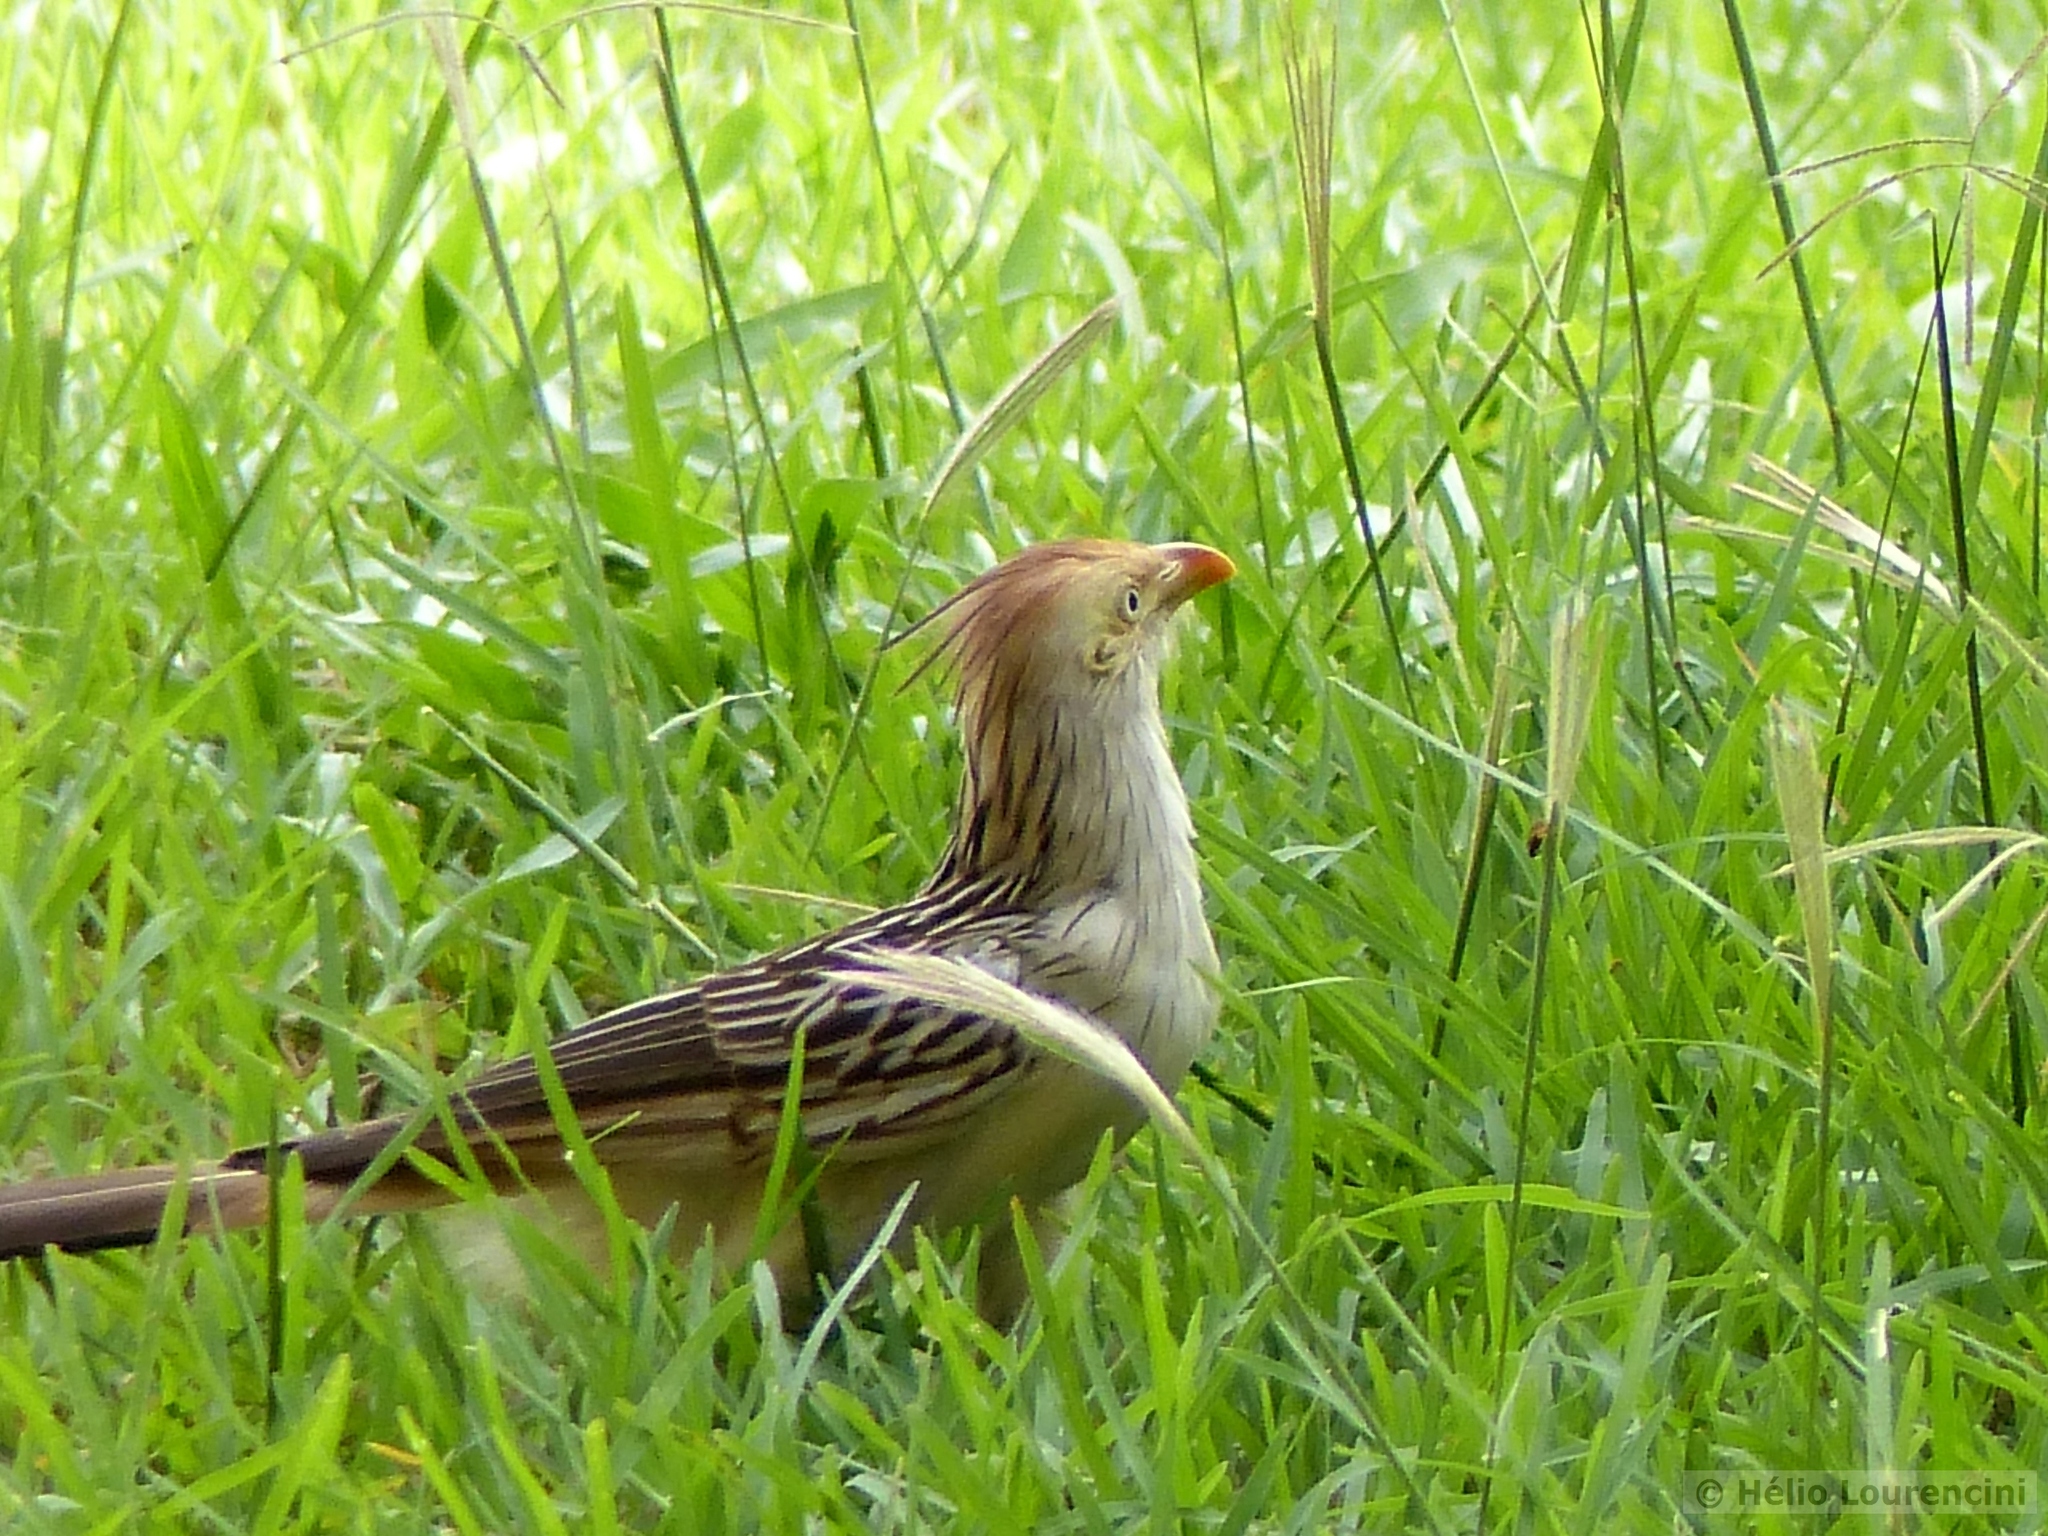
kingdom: Animalia
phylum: Chordata
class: Aves
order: Cuculiformes
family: Cuculidae
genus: Guira
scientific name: Guira guira
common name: Guira cuckoo
